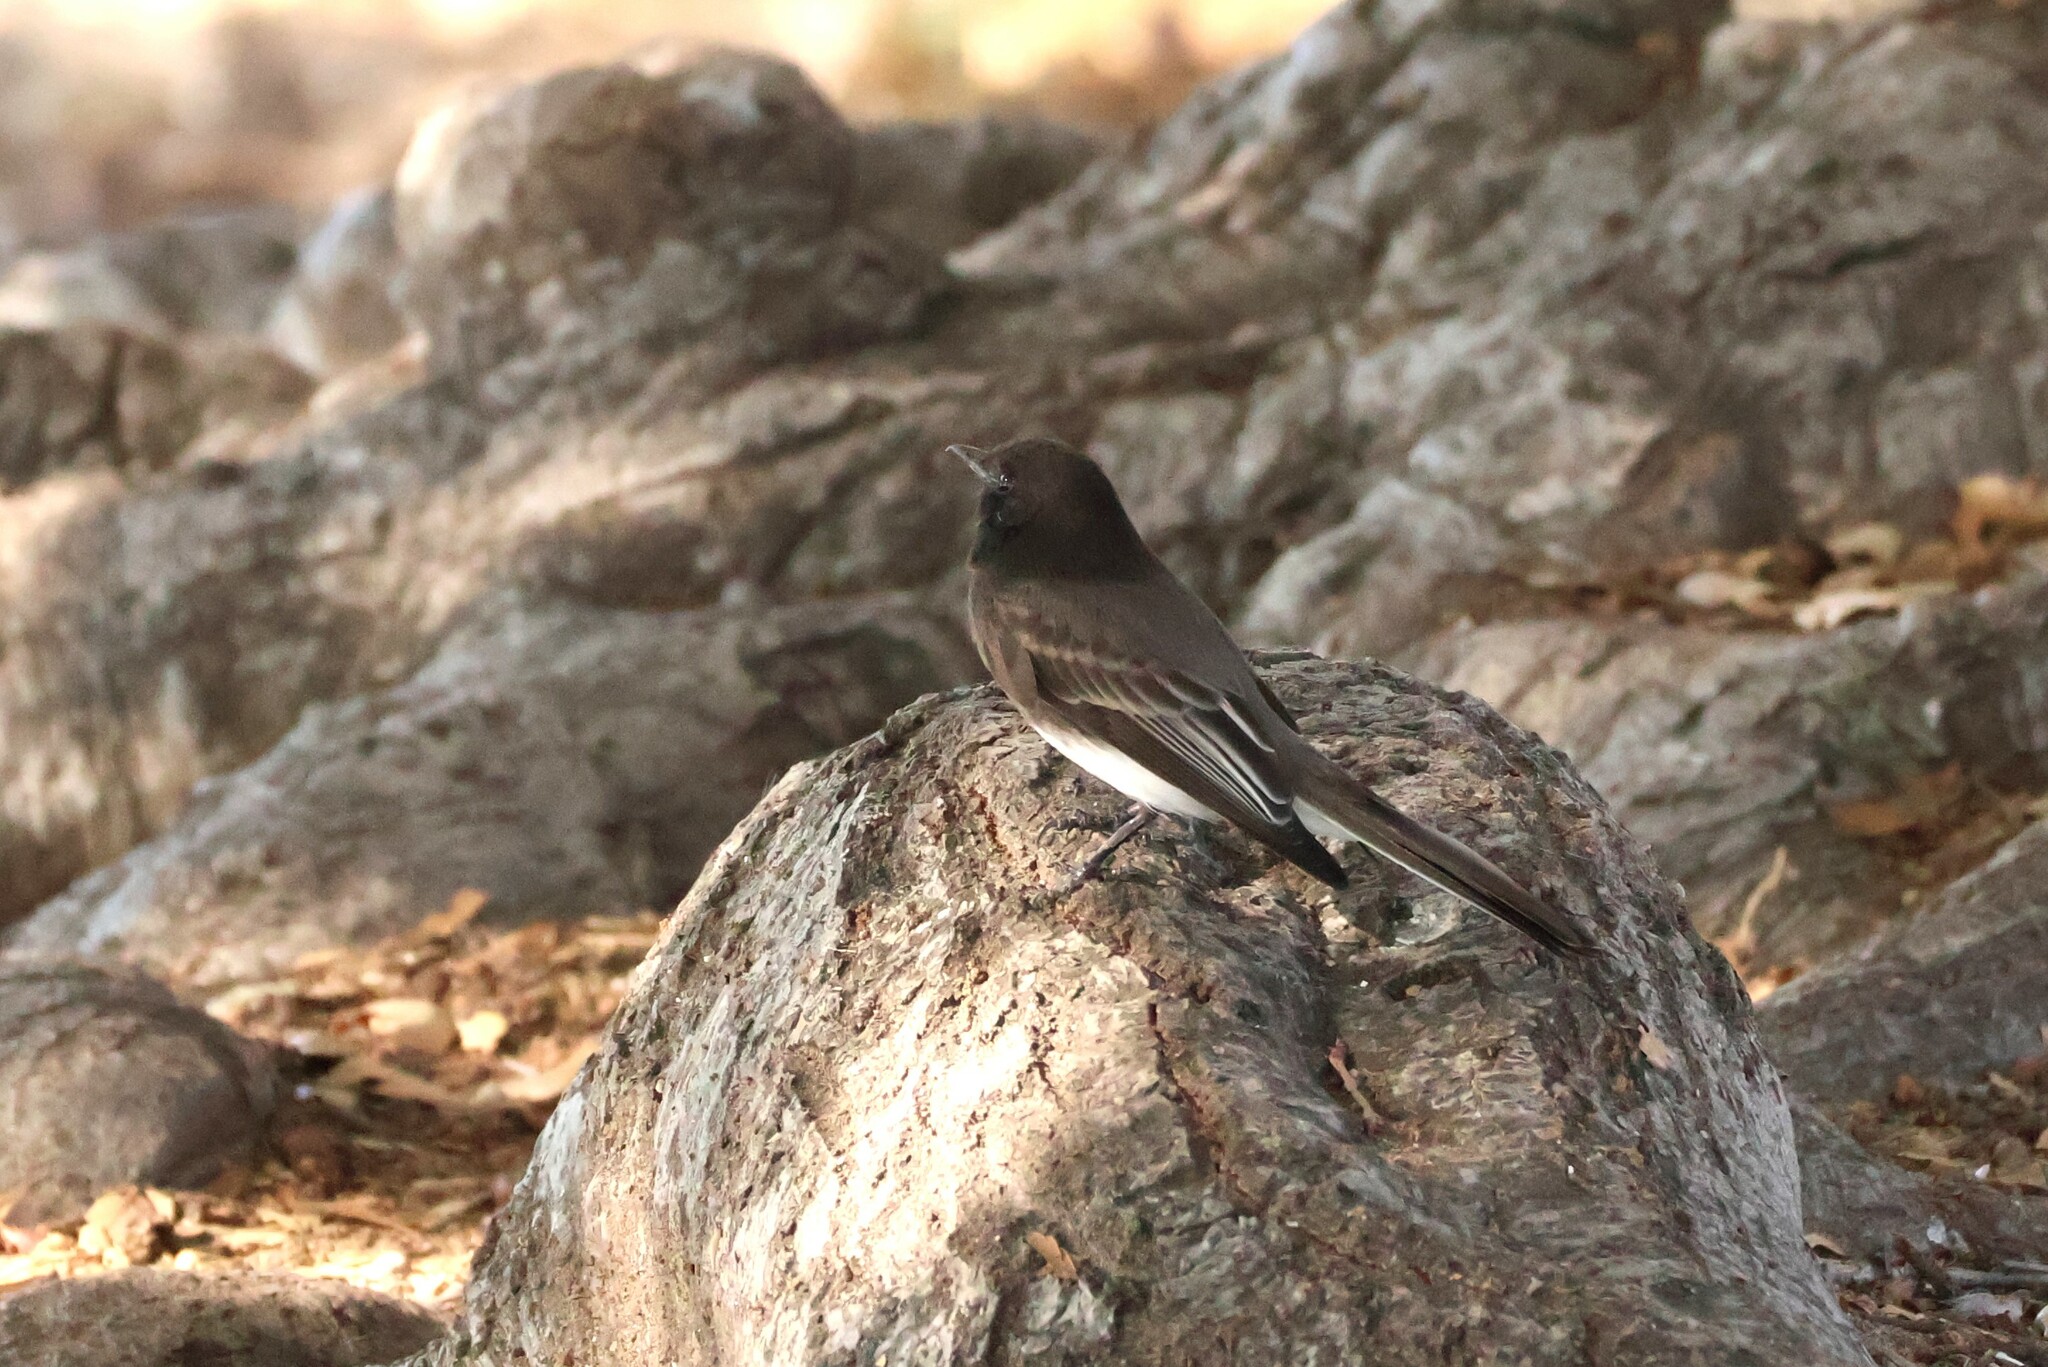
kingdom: Animalia
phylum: Chordata
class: Aves
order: Passeriformes
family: Tyrannidae
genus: Sayornis
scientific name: Sayornis nigricans
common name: Black phoebe
